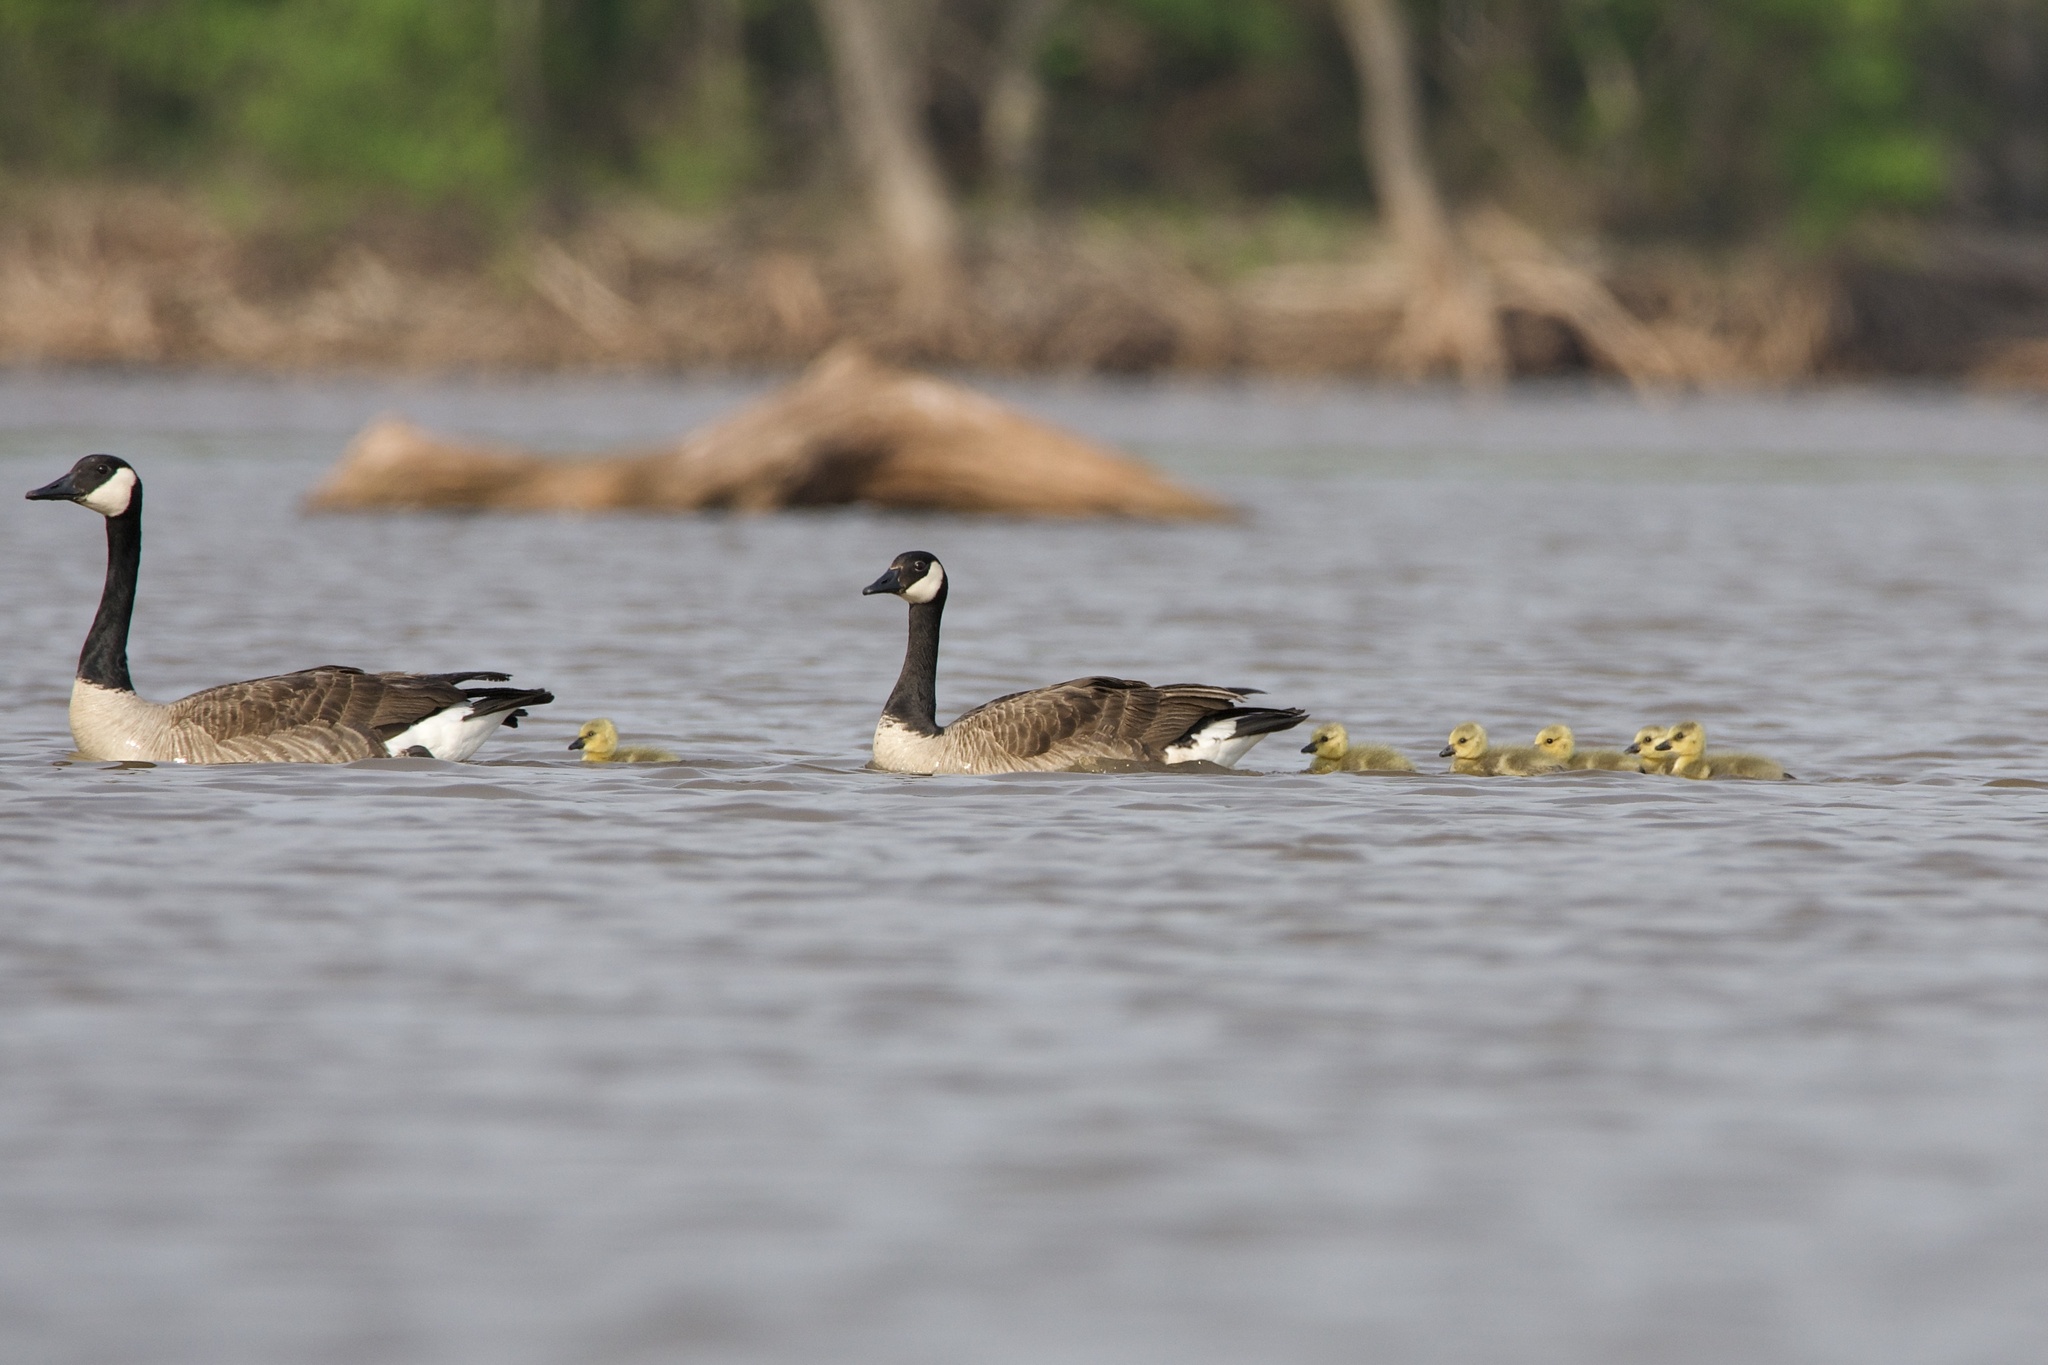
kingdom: Animalia
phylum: Chordata
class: Aves
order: Anseriformes
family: Anatidae
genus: Branta
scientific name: Branta canadensis
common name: Canada goose
